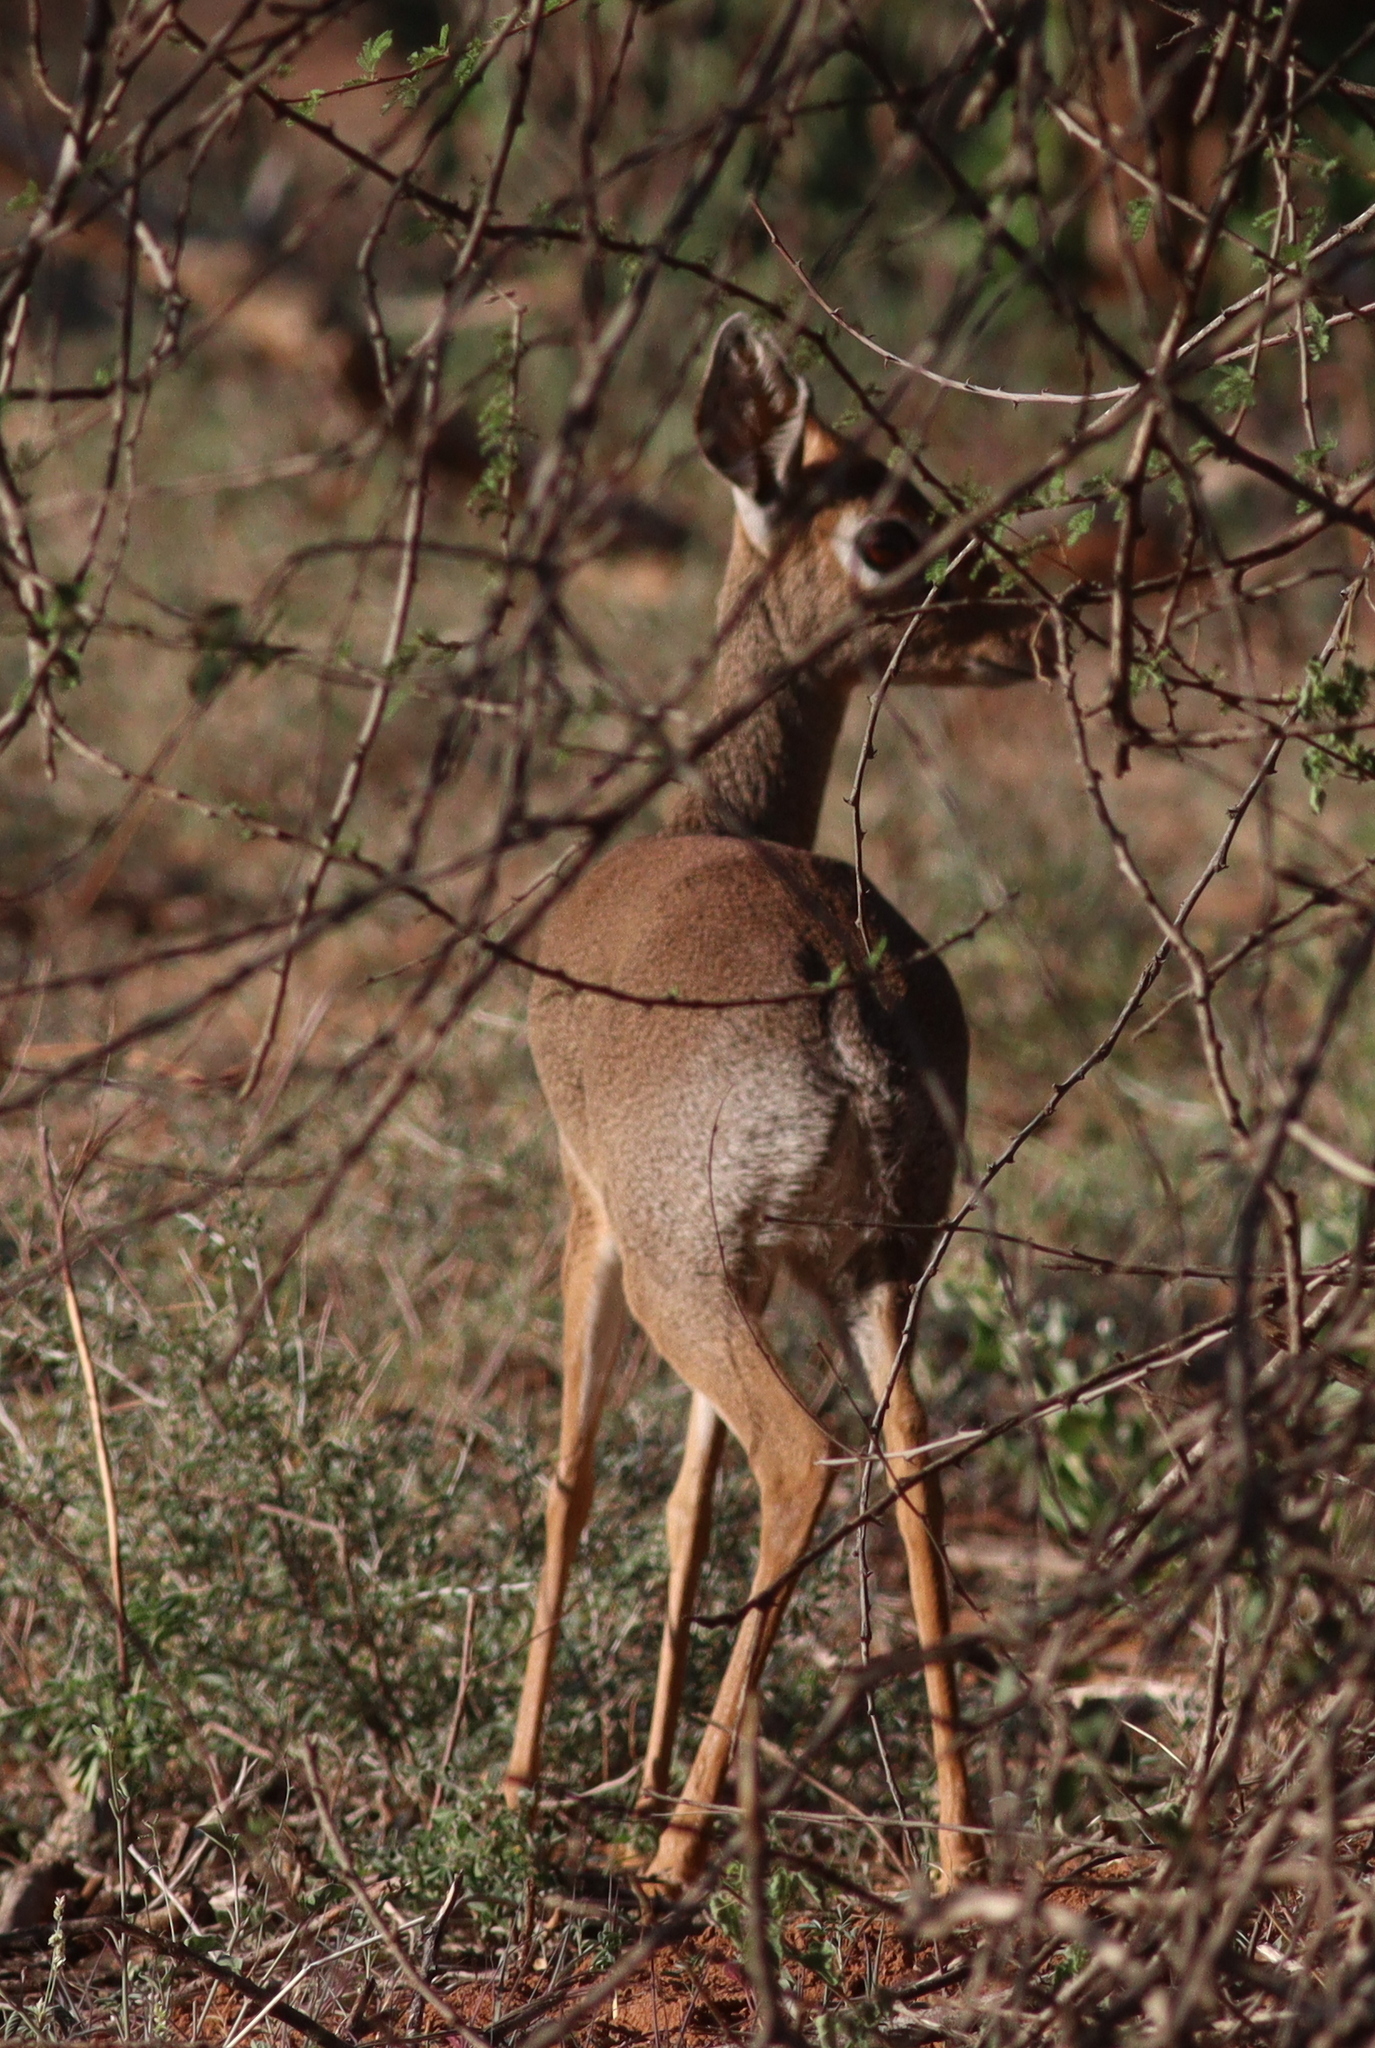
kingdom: Animalia
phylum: Chordata
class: Mammalia
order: Artiodactyla
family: Bovidae
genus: Madoqua
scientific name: Madoqua kirkii
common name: Kirk's dik-dik
